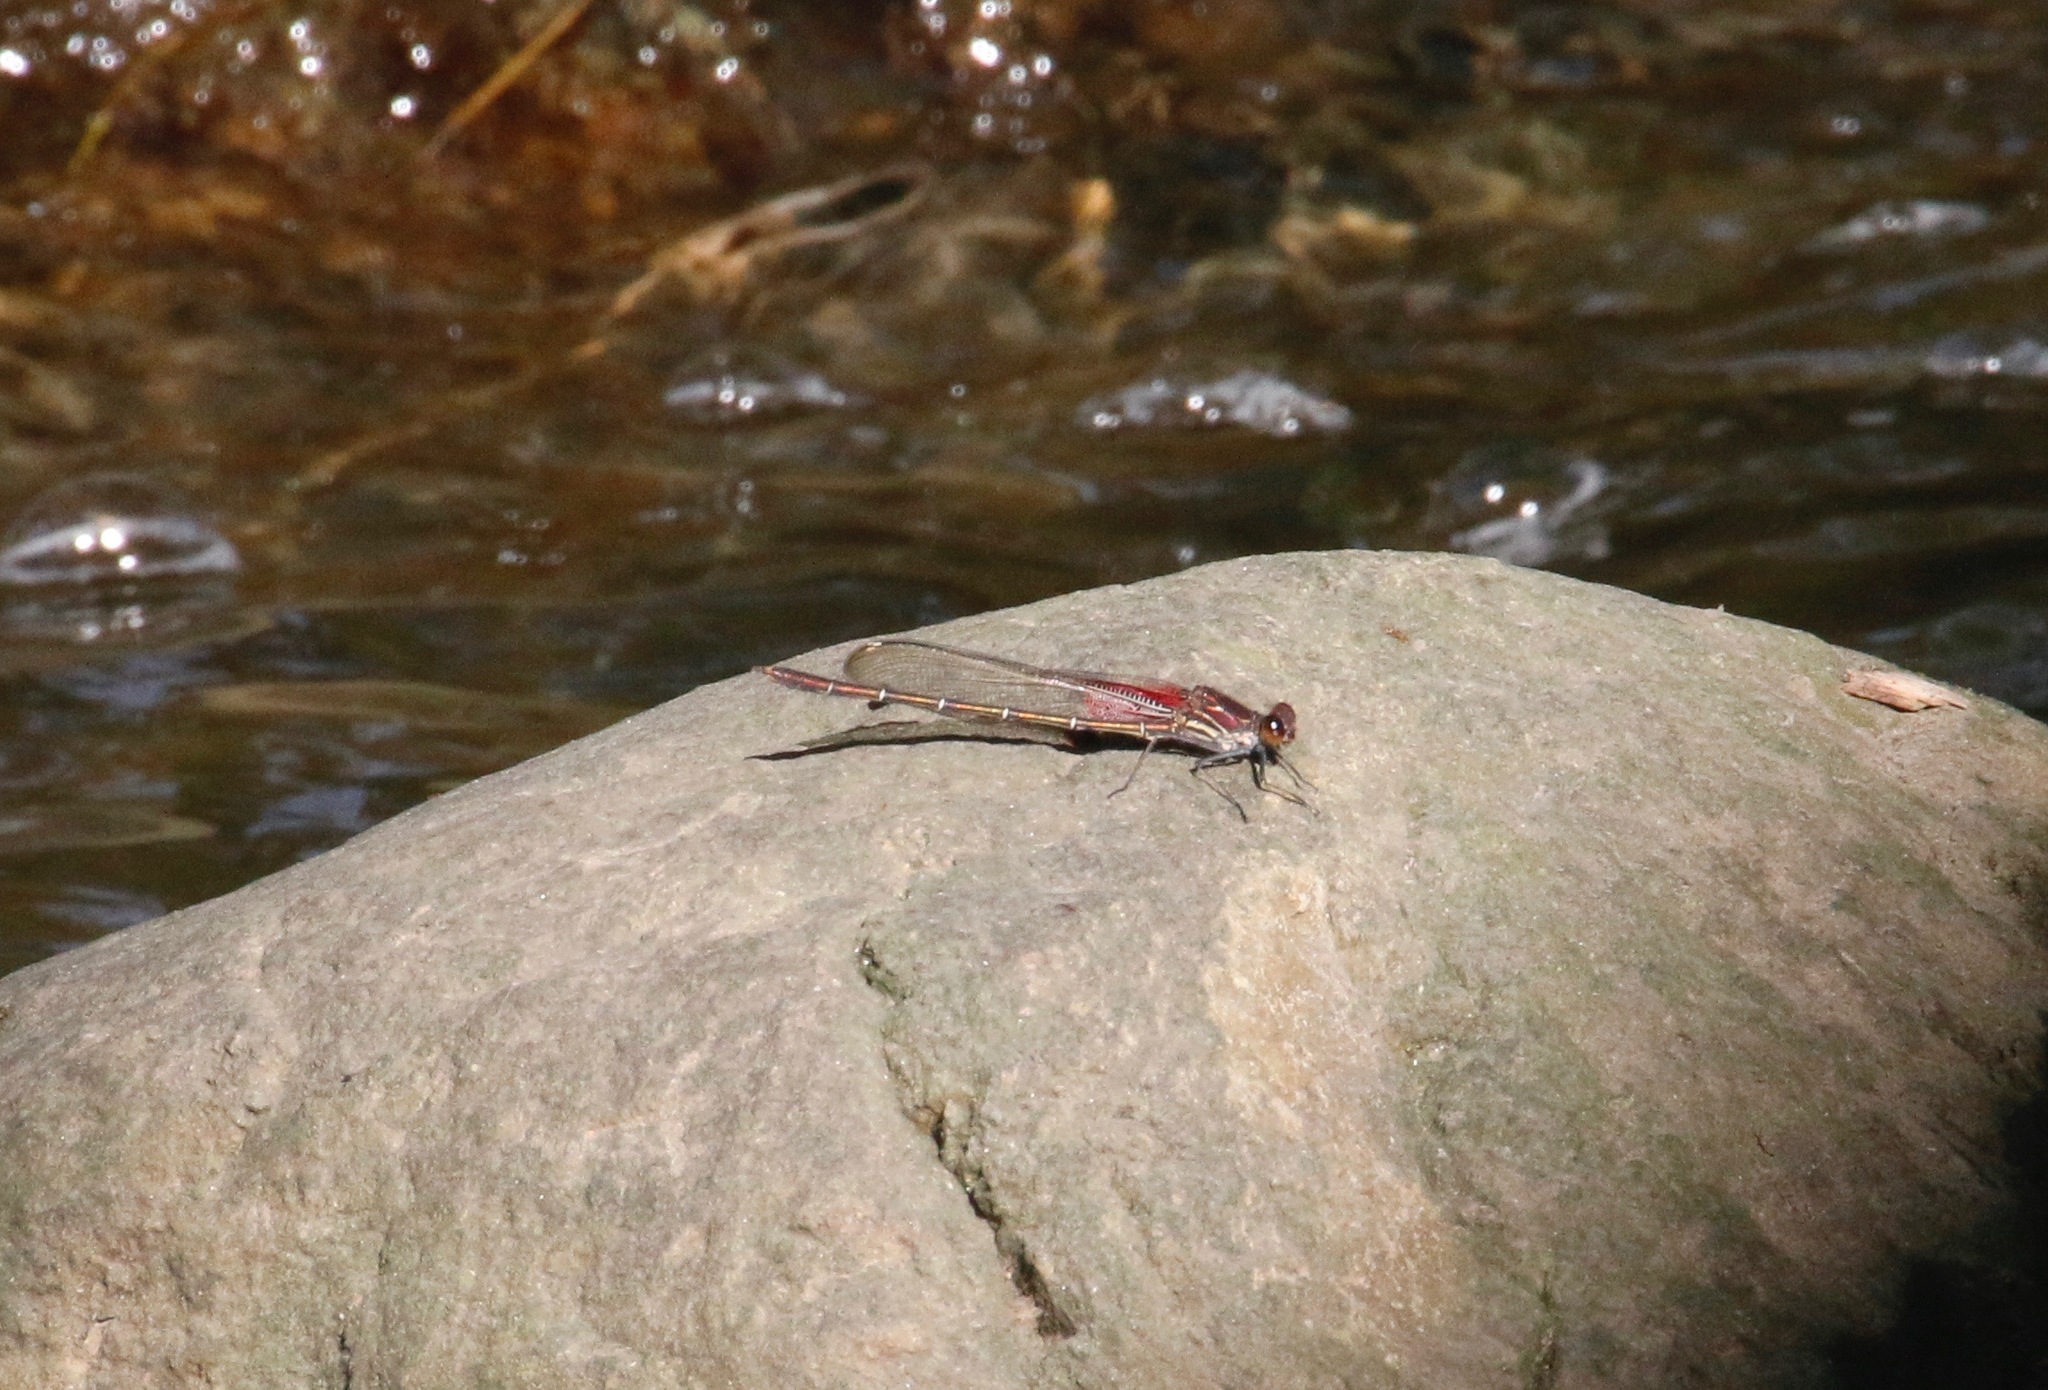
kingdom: Animalia
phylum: Arthropoda
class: Insecta
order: Odonata
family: Calopterygidae
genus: Hetaerina
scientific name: Hetaerina americana
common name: American rubyspot
